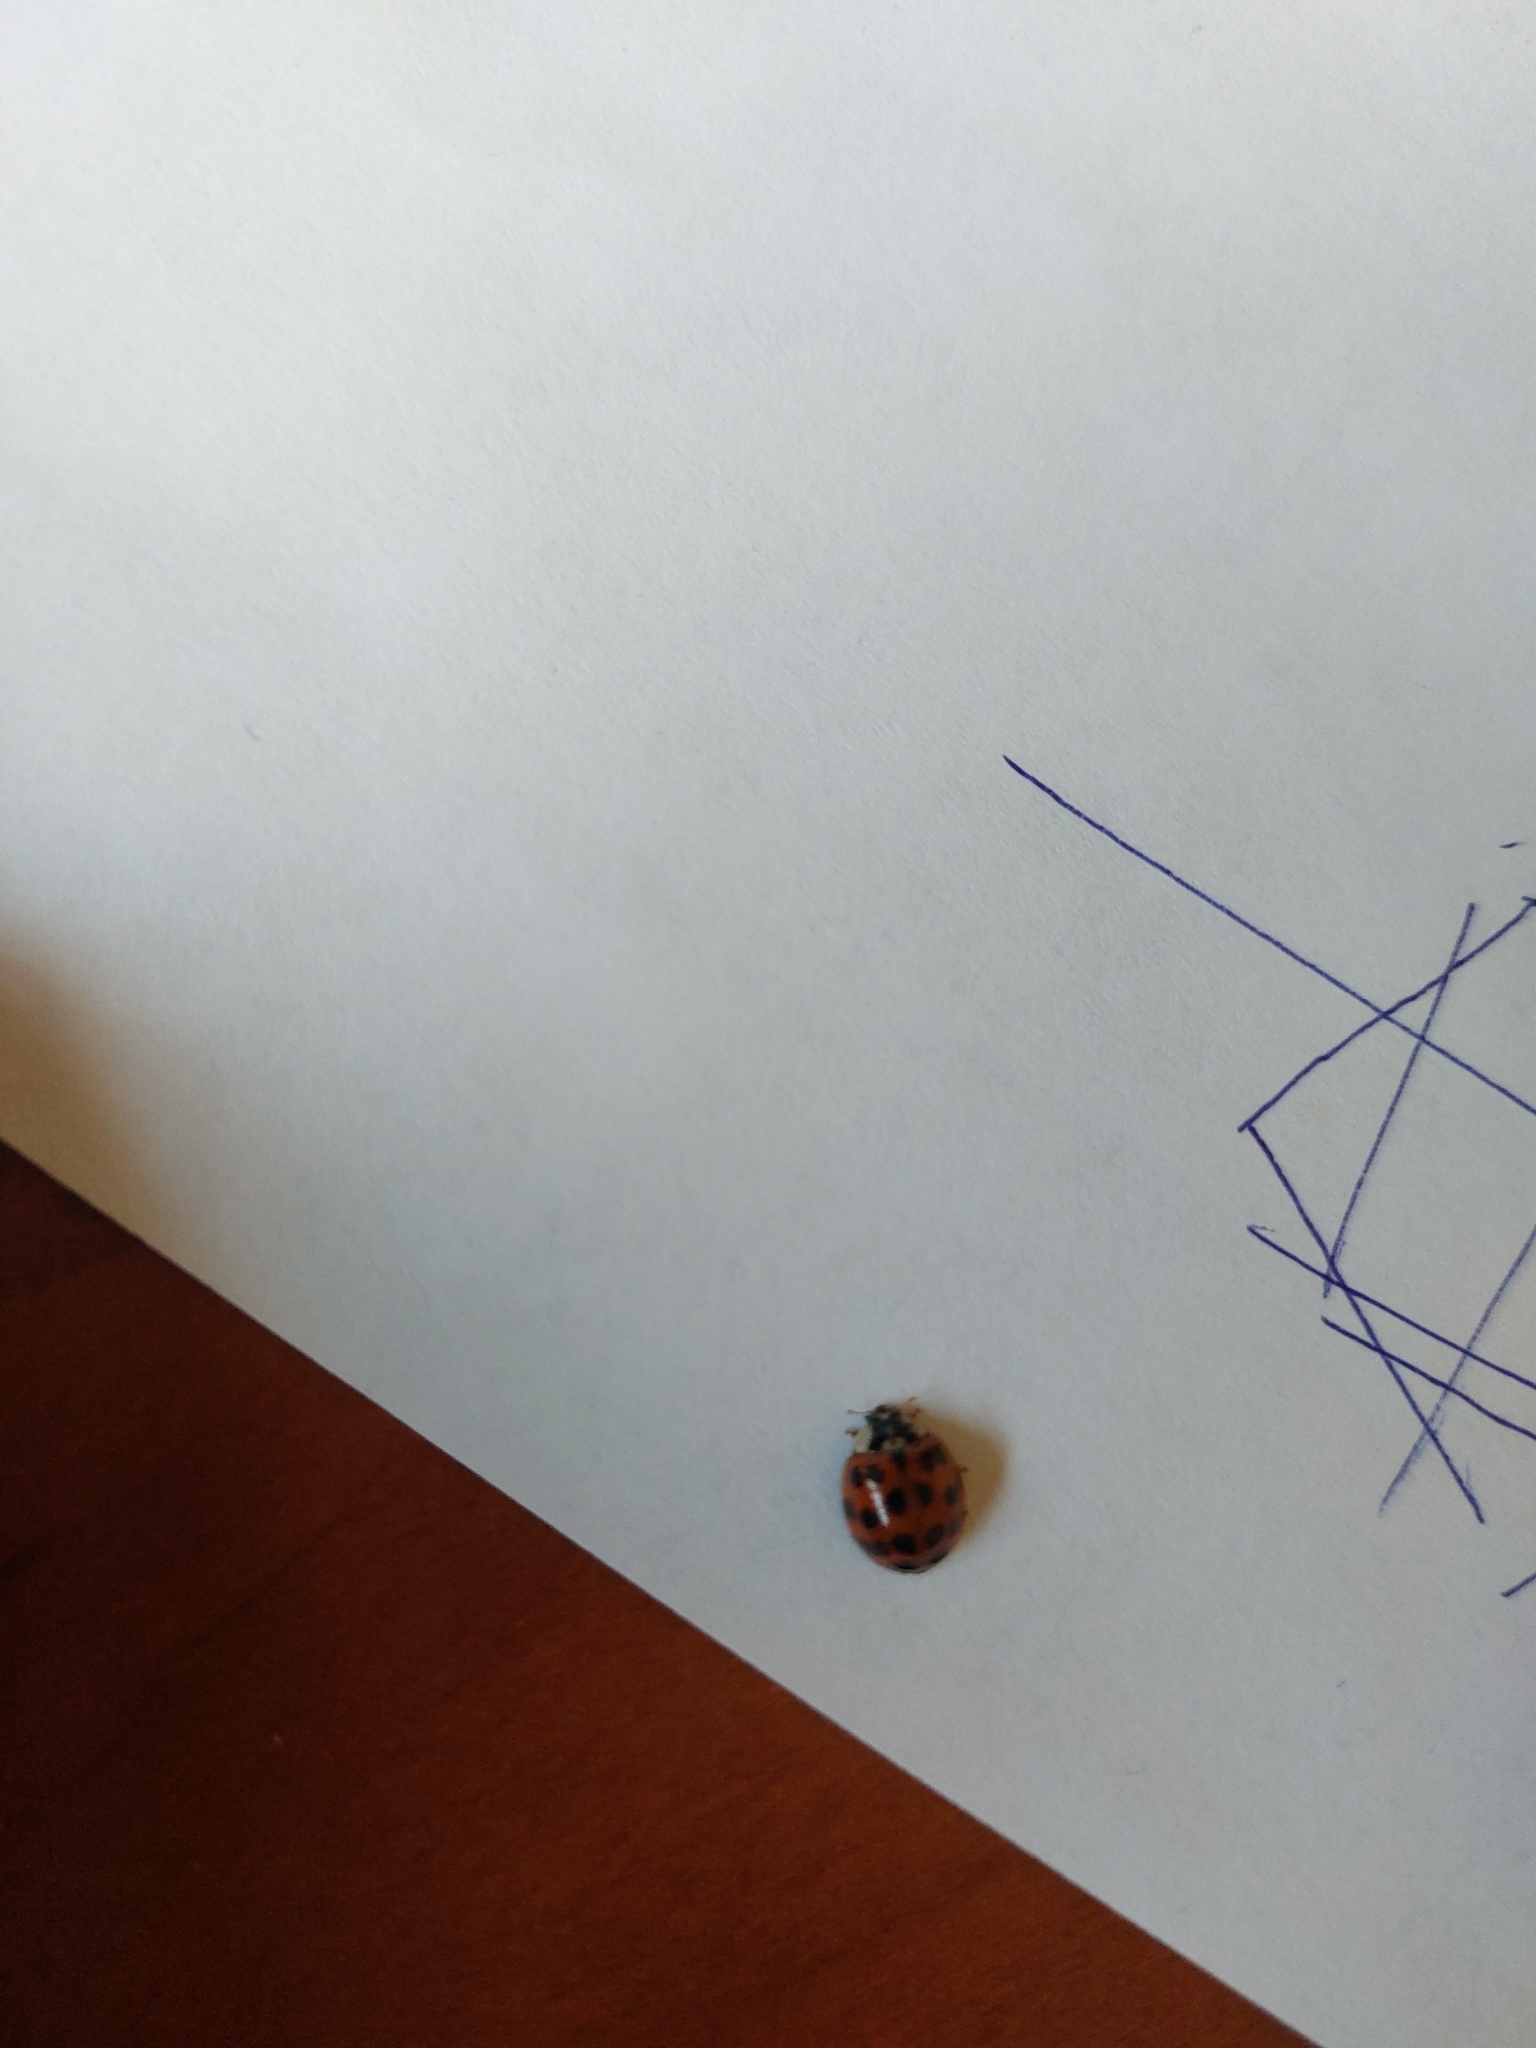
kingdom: Animalia
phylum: Arthropoda
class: Insecta
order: Coleoptera
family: Coccinellidae
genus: Harmonia
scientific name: Harmonia axyridis
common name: Harlequin ladybird
